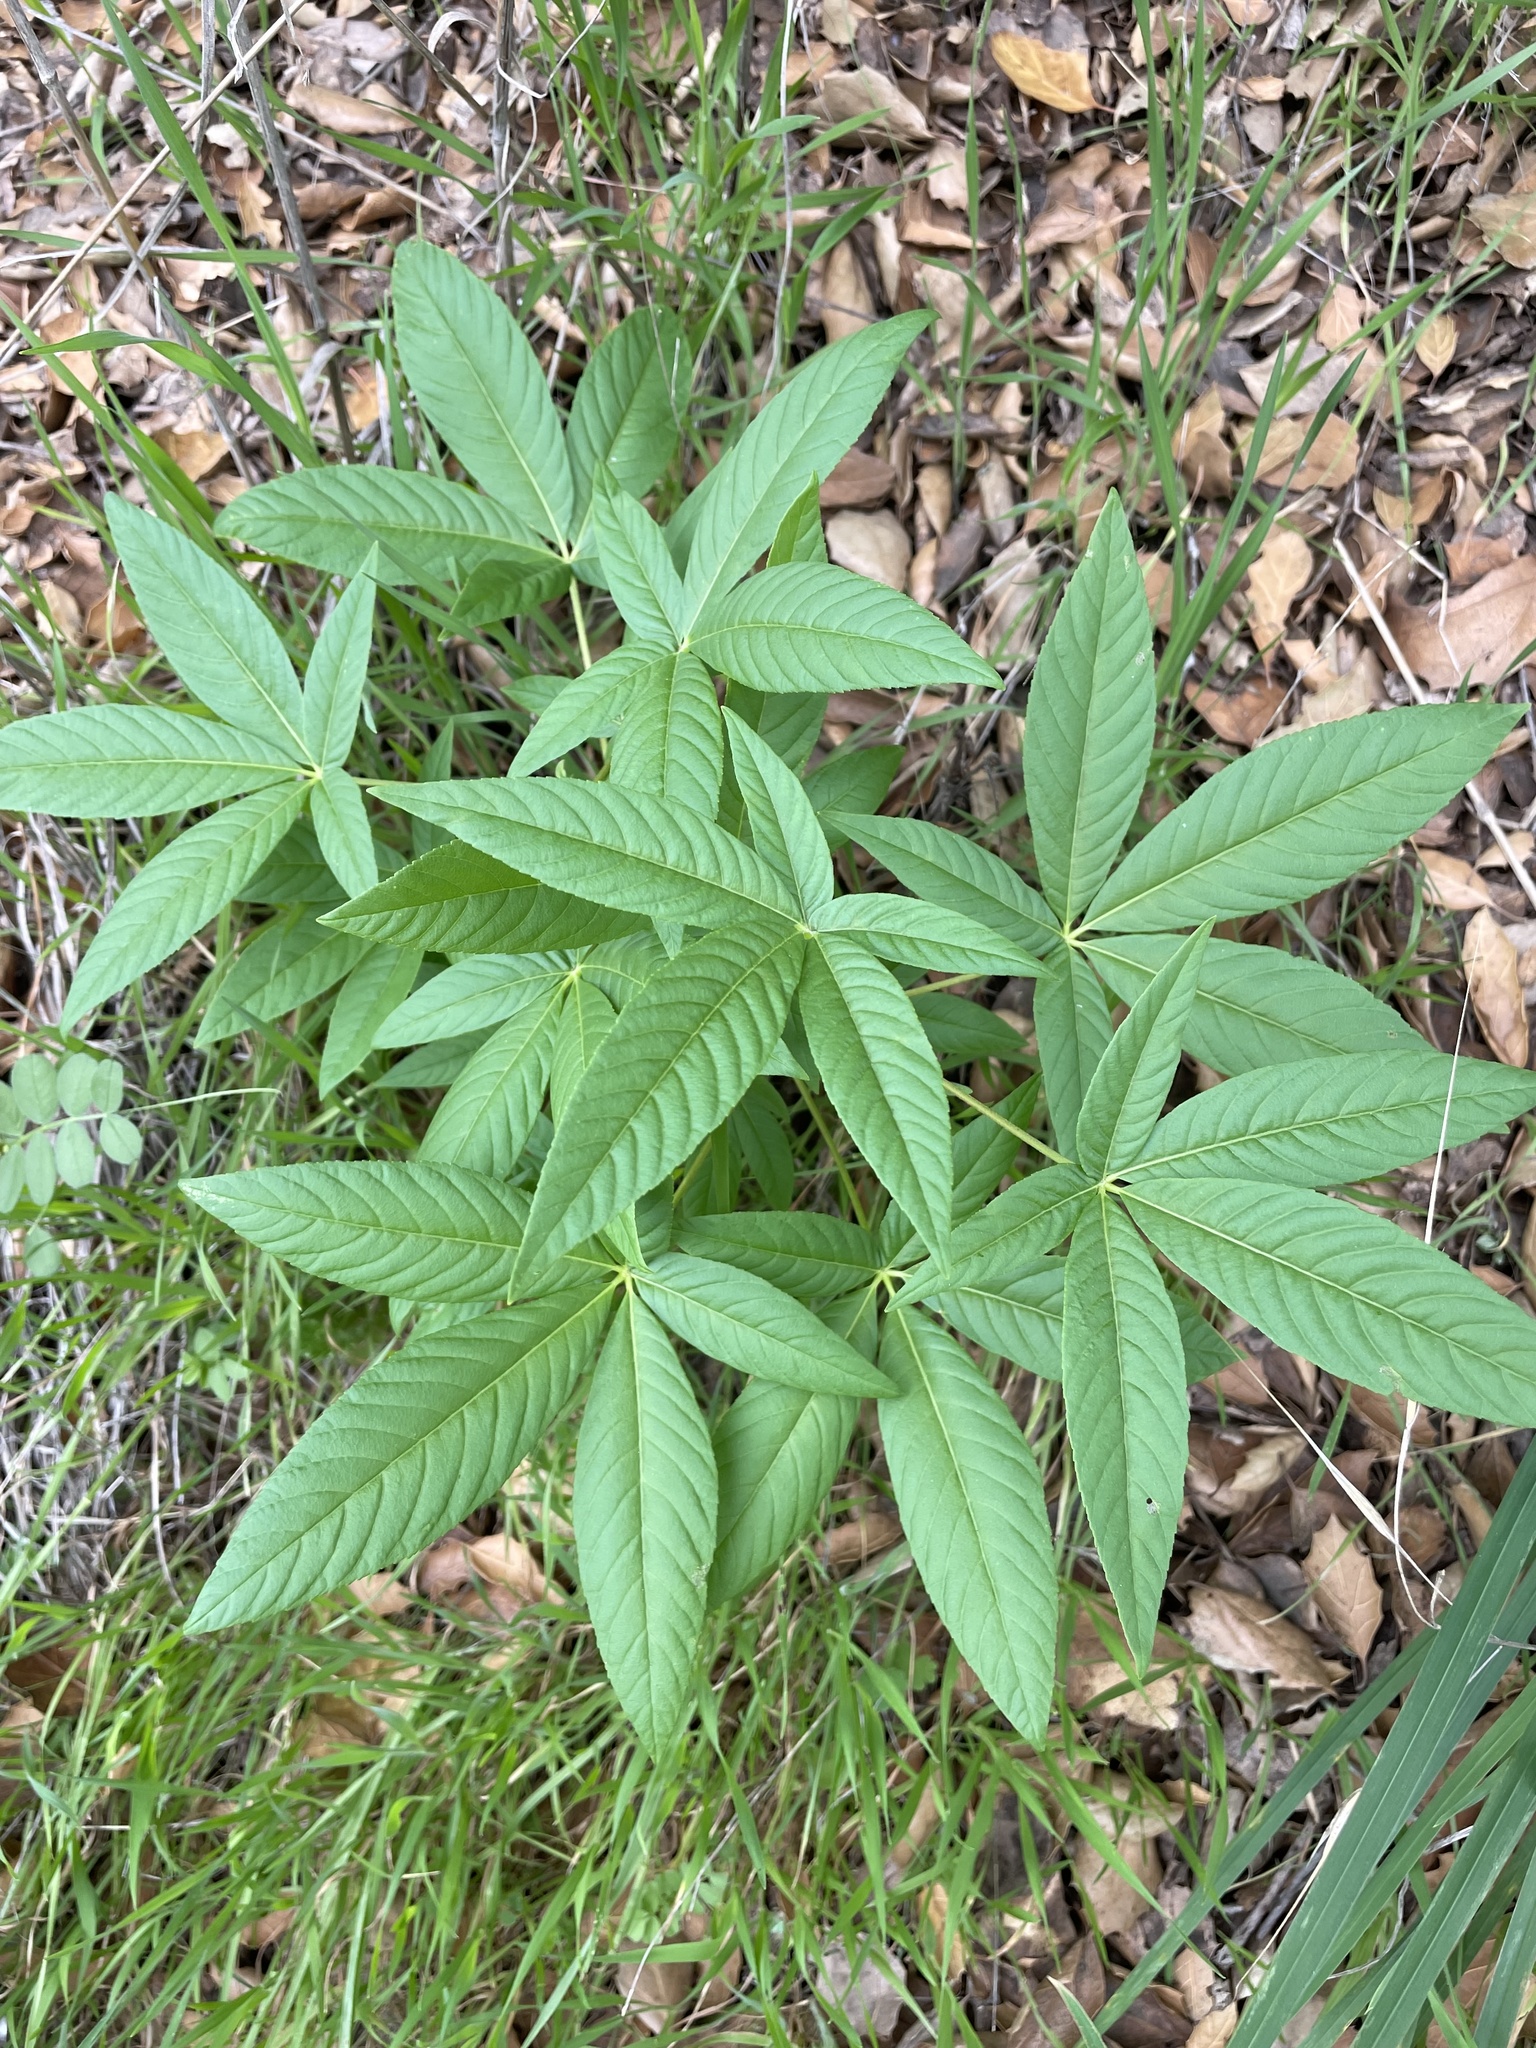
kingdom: Plantae
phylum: Tracheophyta
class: Magnoliopsida
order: Sapindales
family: Sapindaceae
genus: Aesculus
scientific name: Aesculus californica
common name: California buckeye
